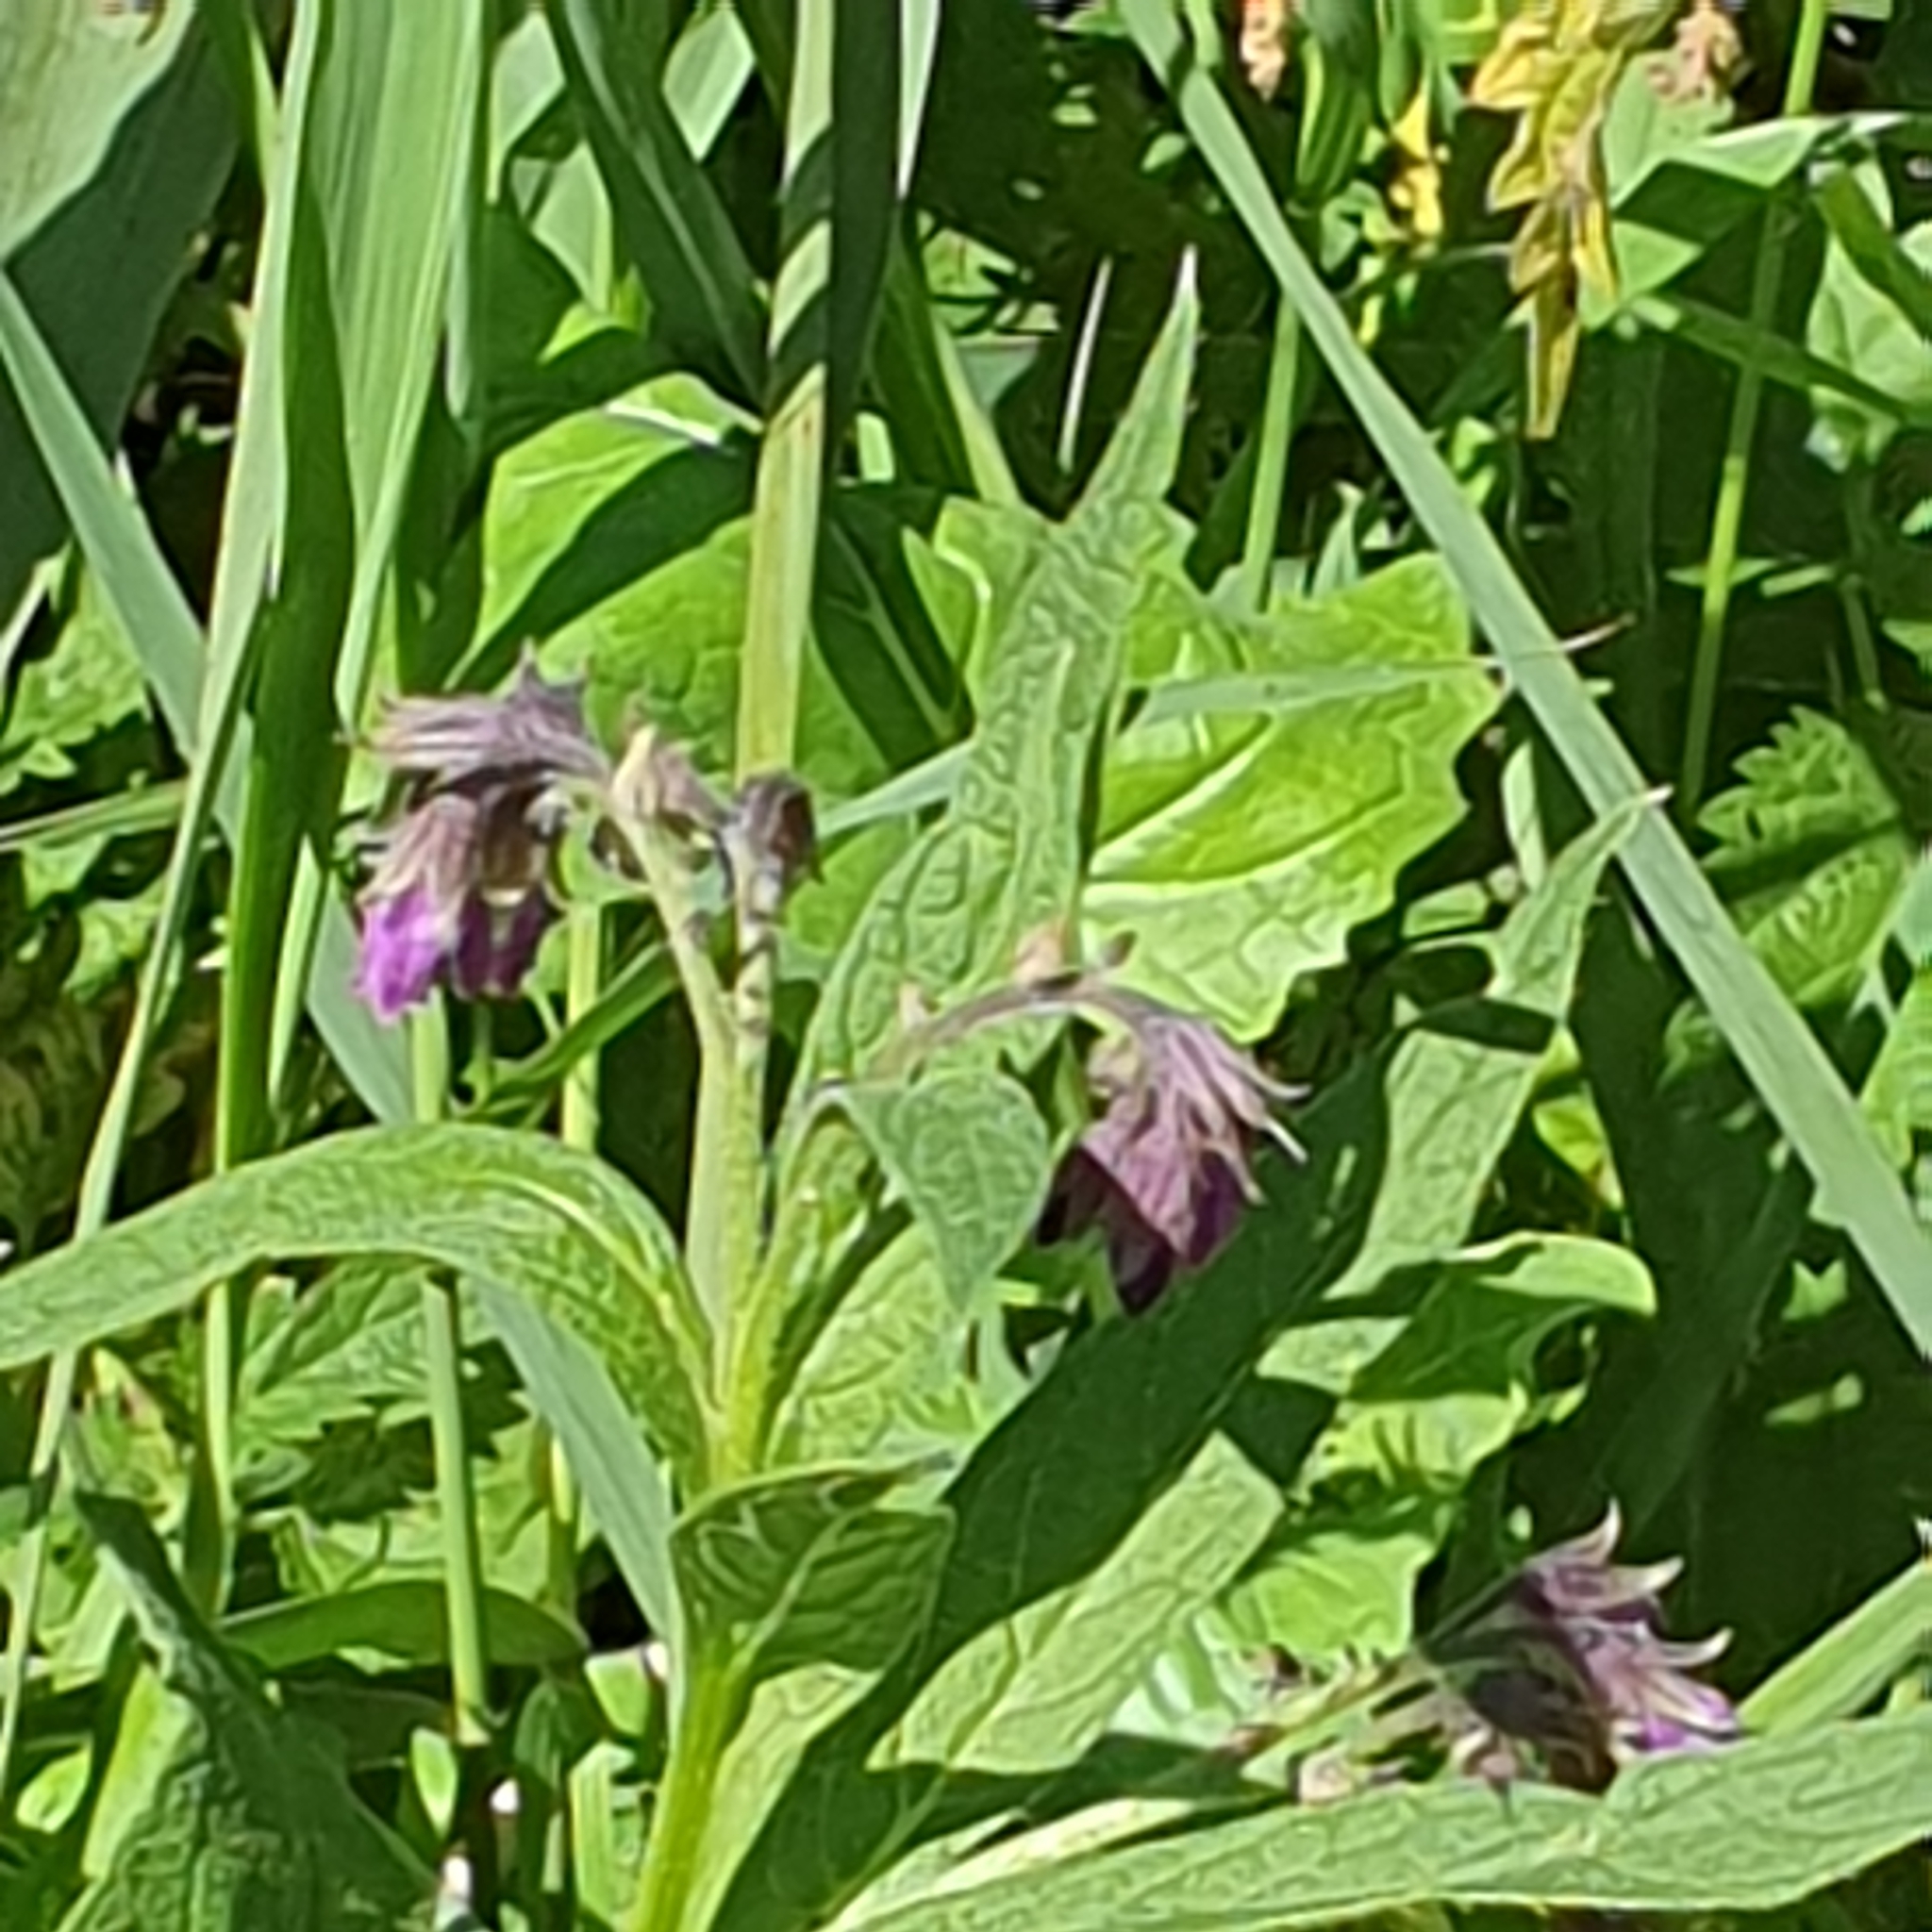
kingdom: Plantae
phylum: Tracheophyta
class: Magnoliopsida
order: Boraginales
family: Boraginaceae
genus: Symphytum
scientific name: Symphytum officinale
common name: Common comfrey
